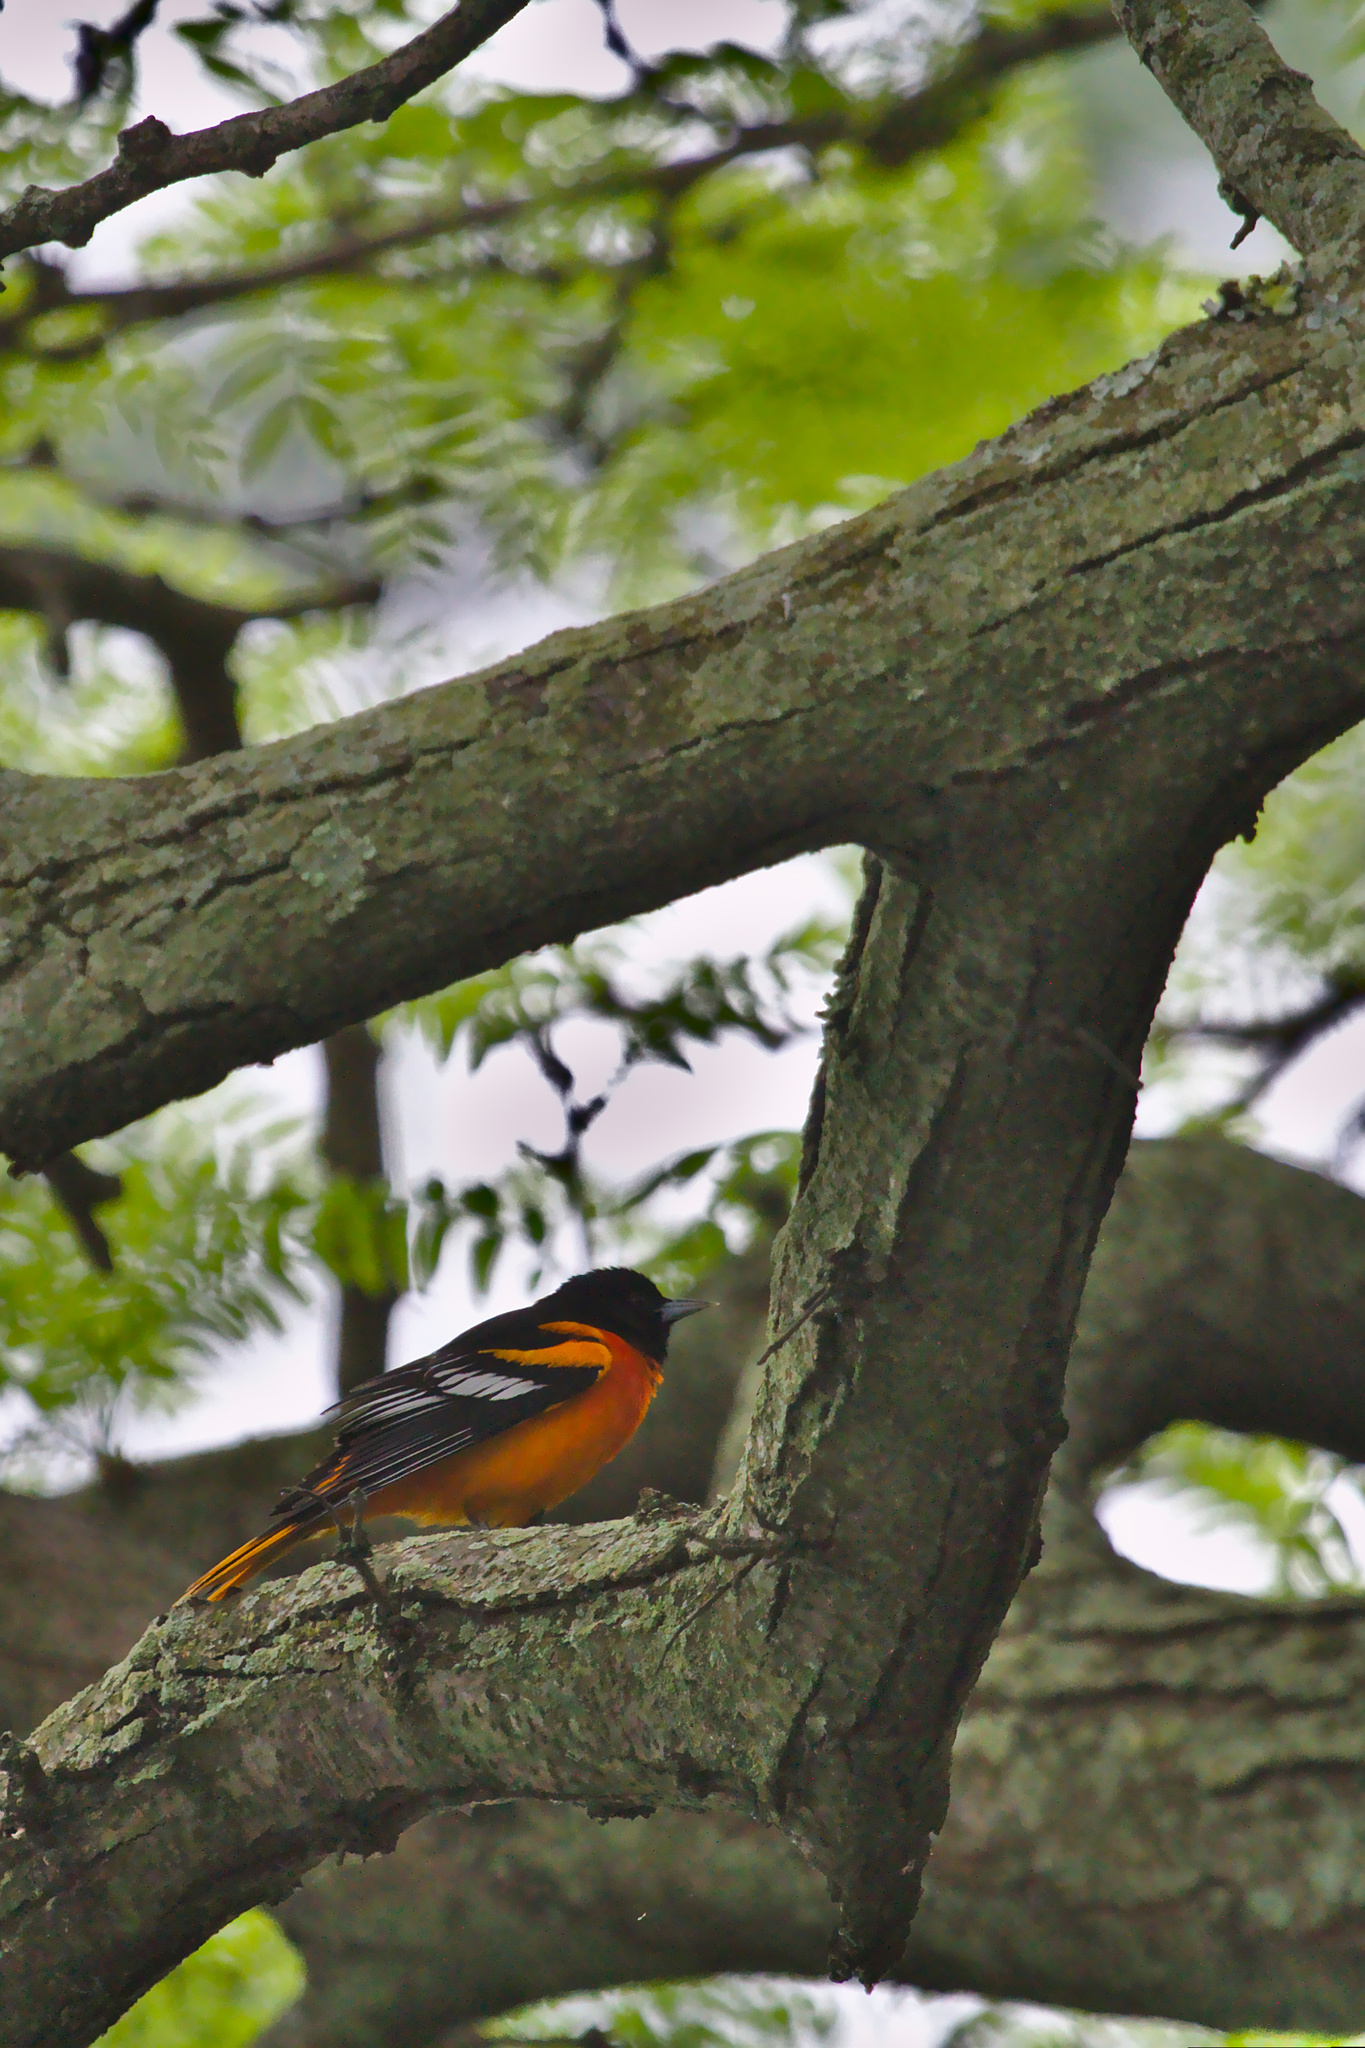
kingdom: Animalia
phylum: Chordata
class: Aves
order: Passeriformes
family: Icteridae
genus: Icterus
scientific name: Icterus galbula
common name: Baltimore oriole
